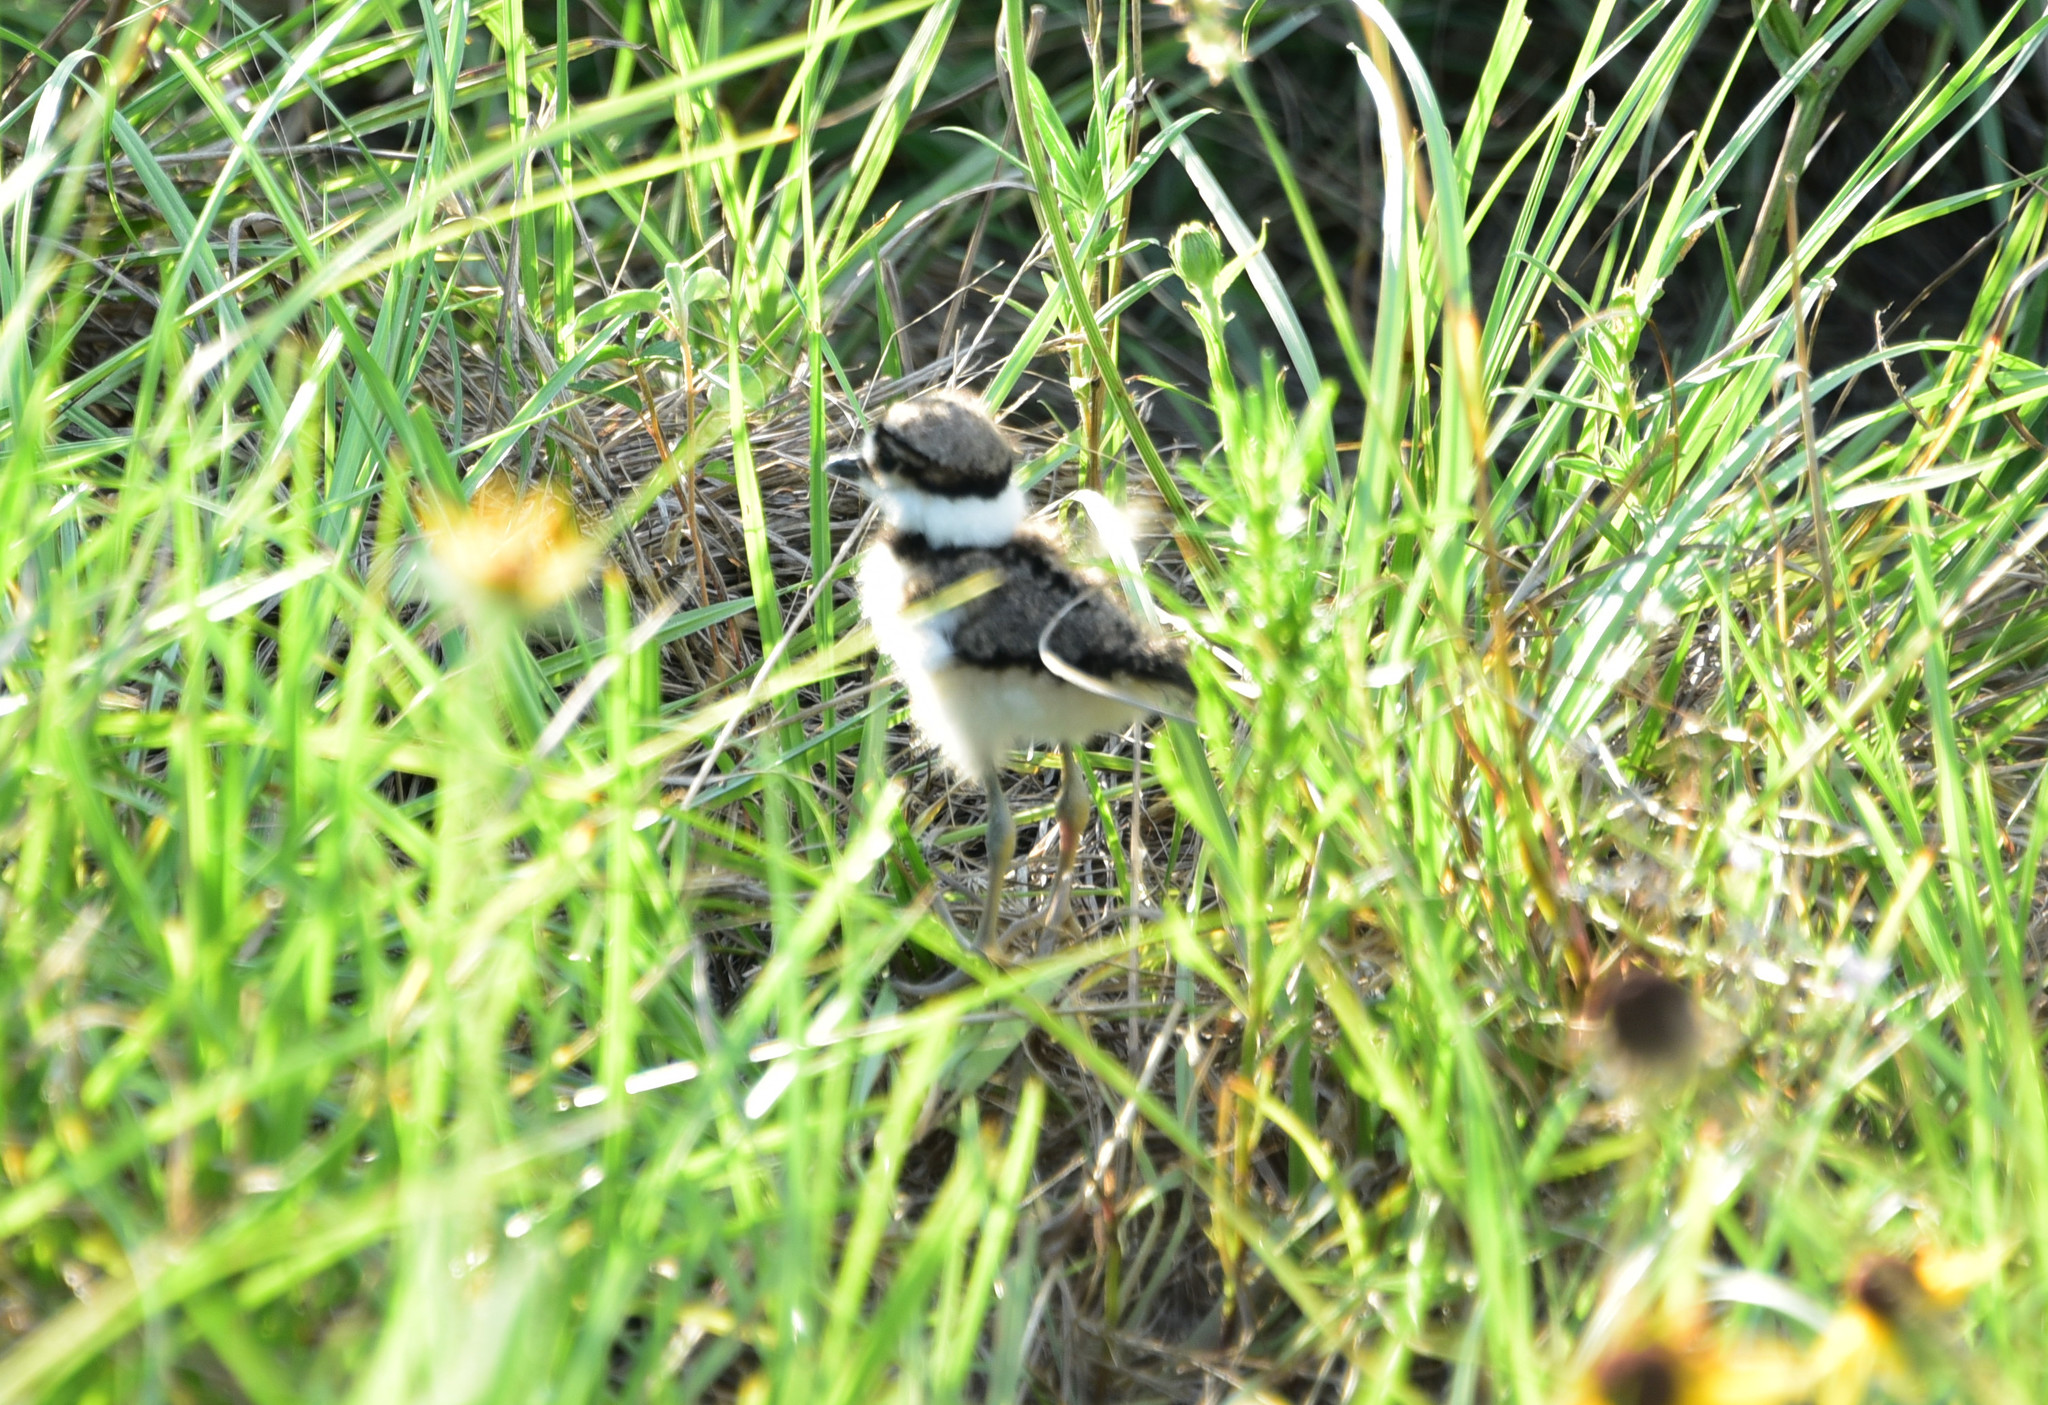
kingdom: Animalia
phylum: Chordata
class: Aves
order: Charadriiformes
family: Charadriidae
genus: Charadrius
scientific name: Charadrius vociferus
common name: Killdeer
